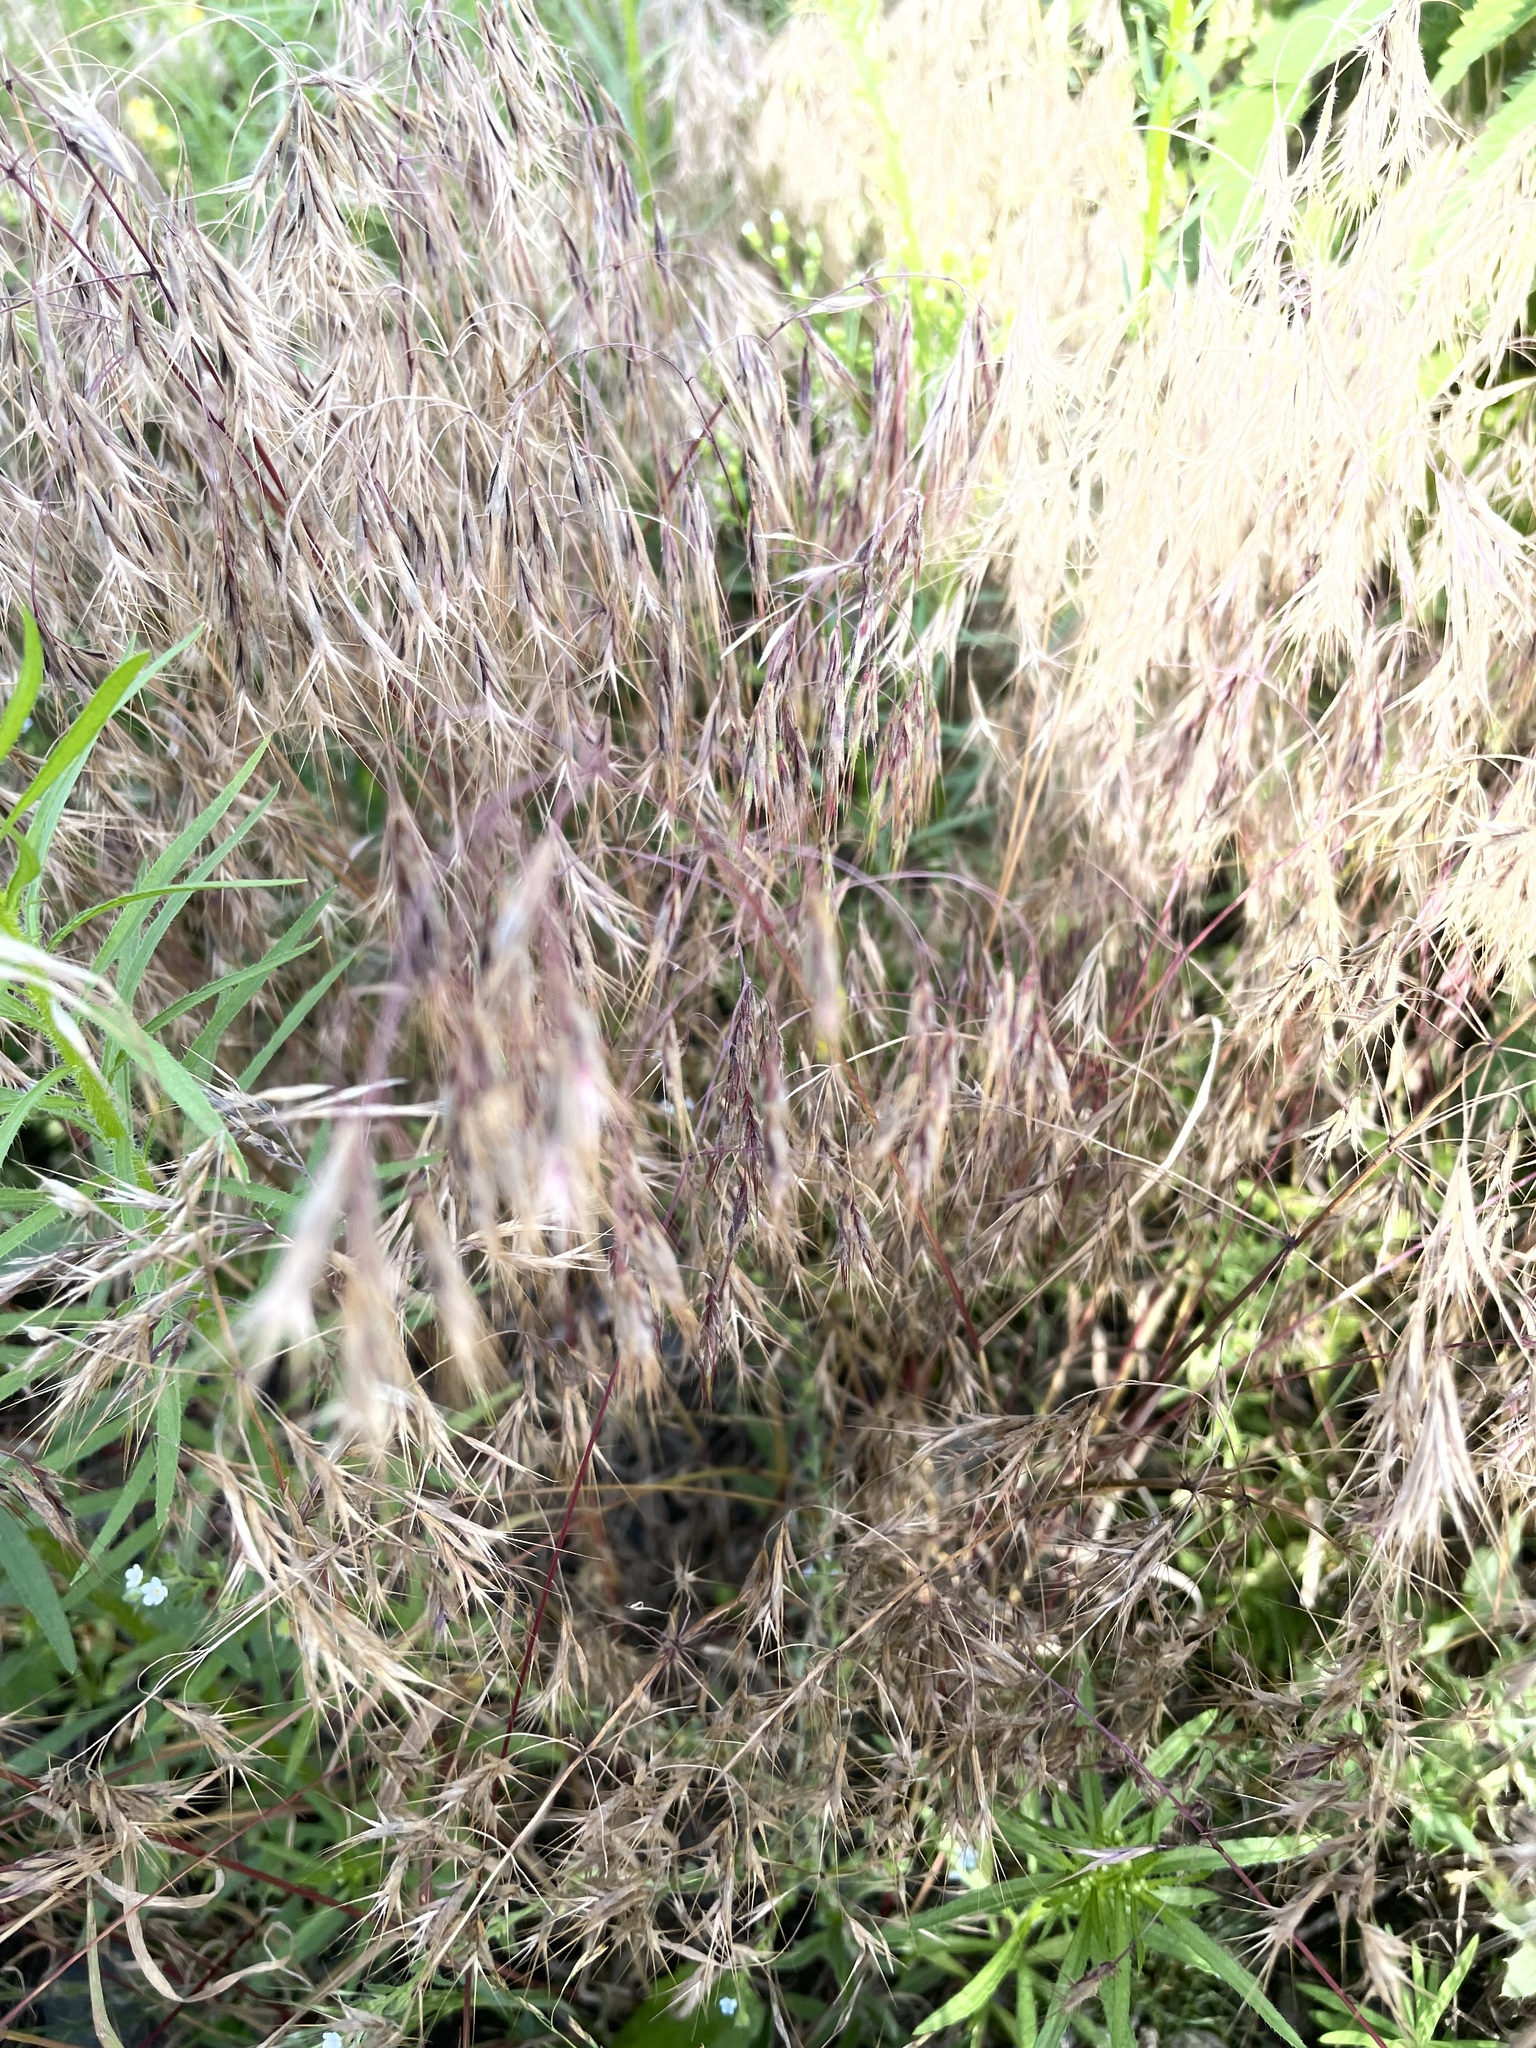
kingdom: Plantae
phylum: Tracheophyta
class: Liliopsida
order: Poales
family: Poaceae
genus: Bromus
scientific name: Bromus tectorum
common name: Cheatgrass
